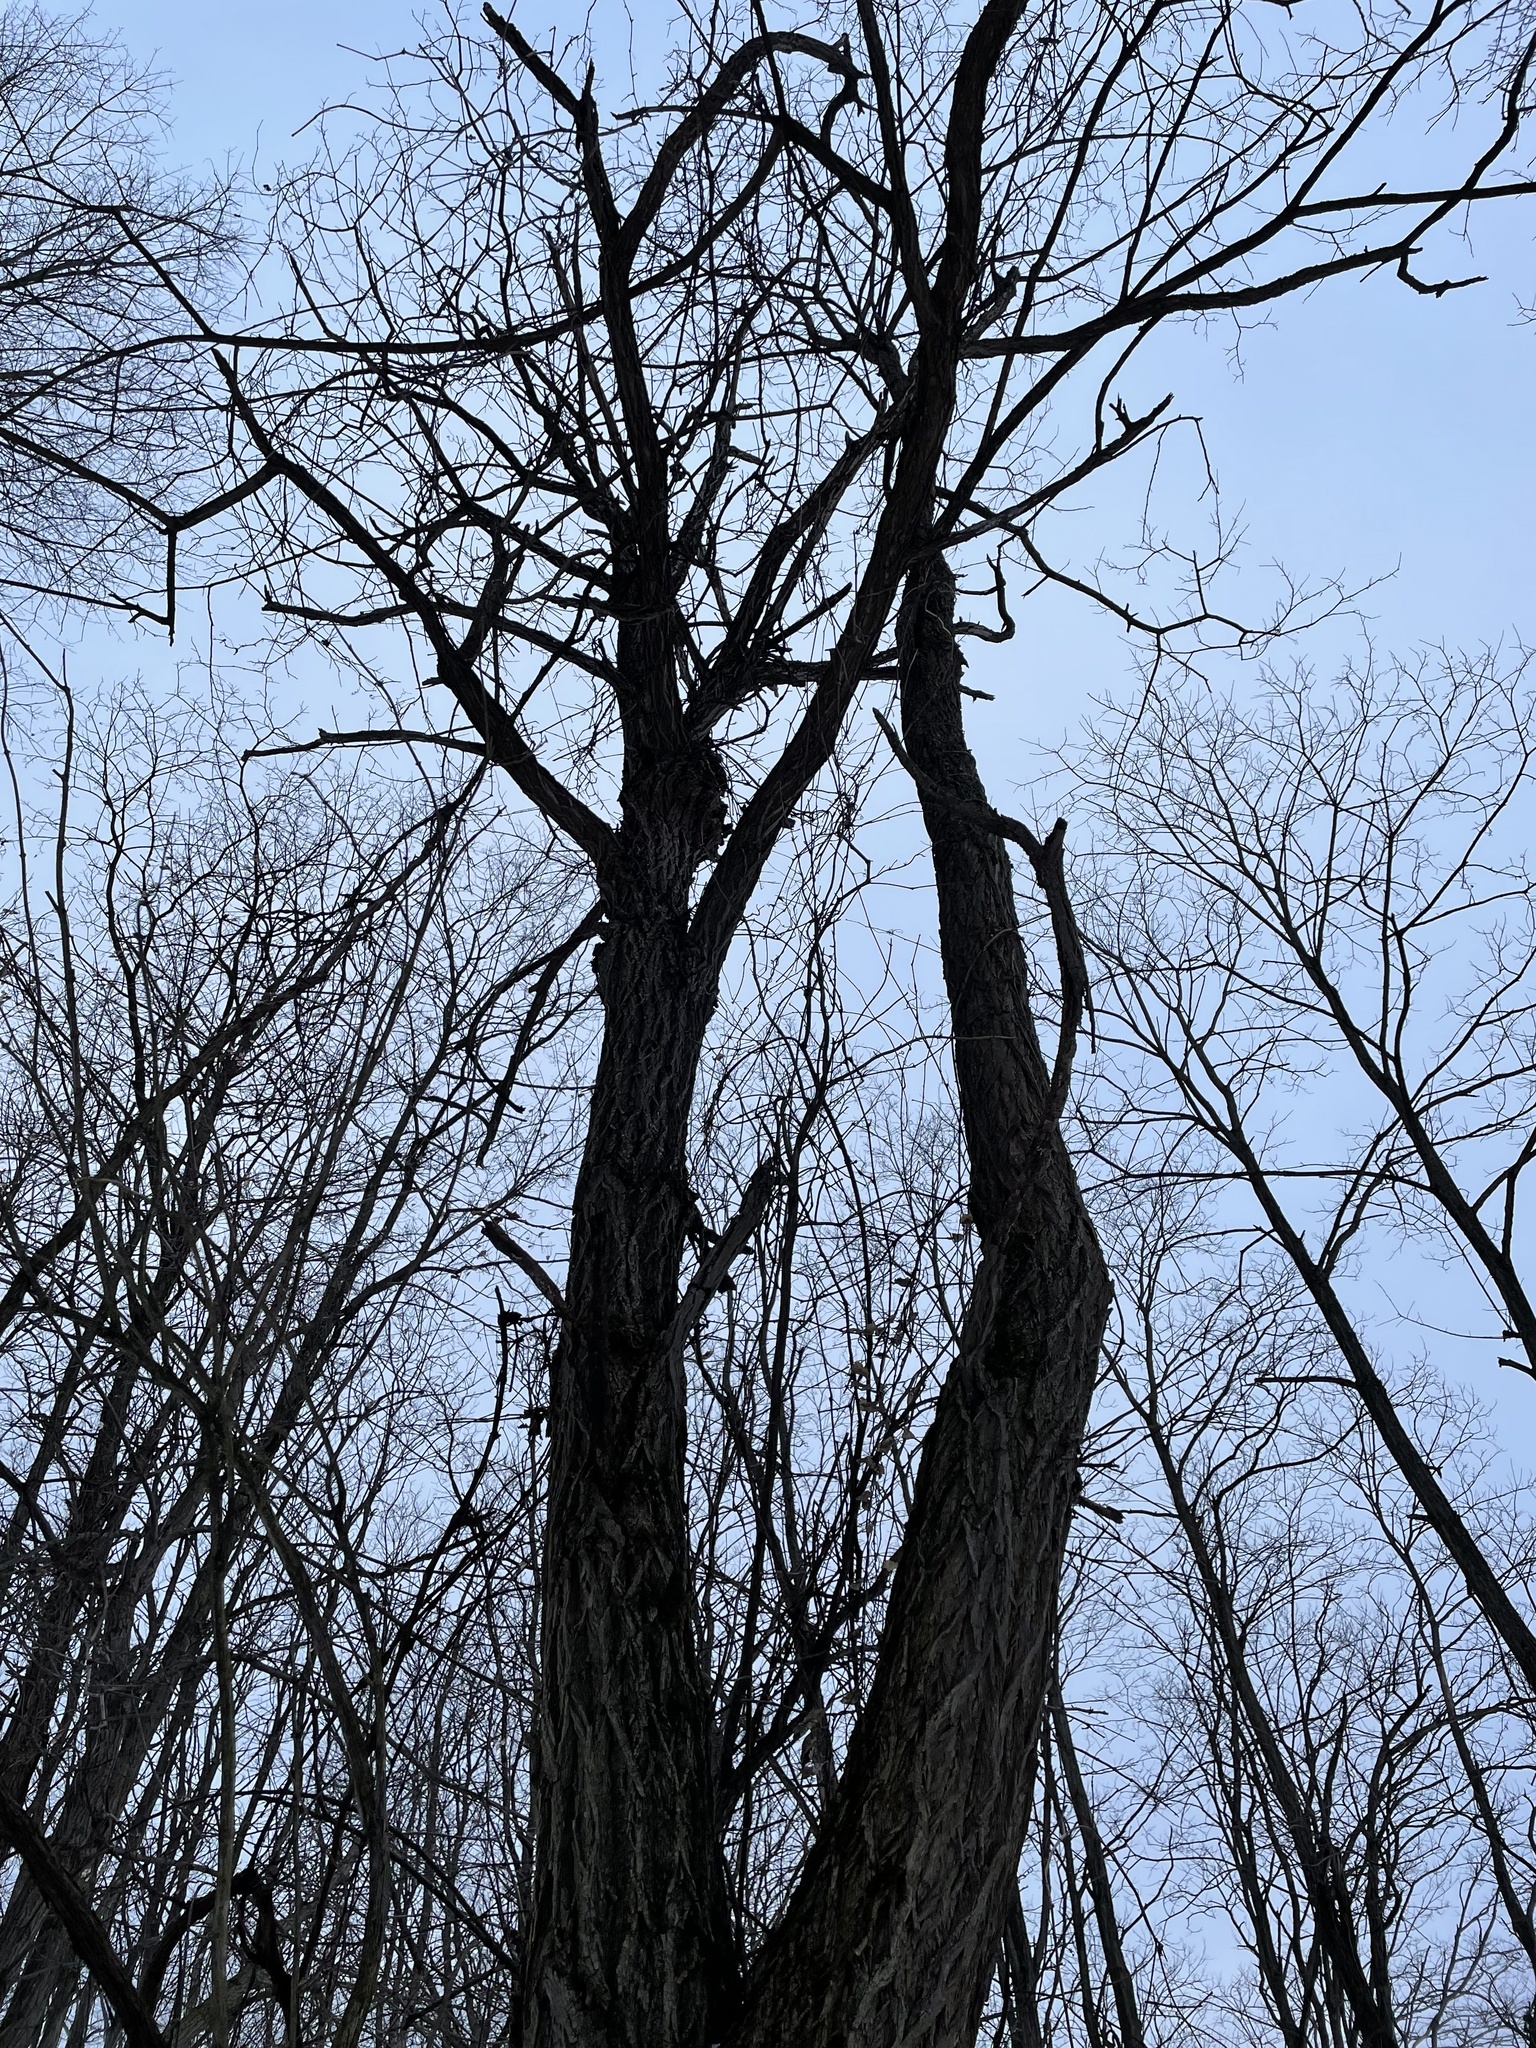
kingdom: Plantae
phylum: Tracheophyta
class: Magnoliopsida
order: Fabales
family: Fabaceae
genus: Robinia
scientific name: Robinia pseudoacacia
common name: Black locust
